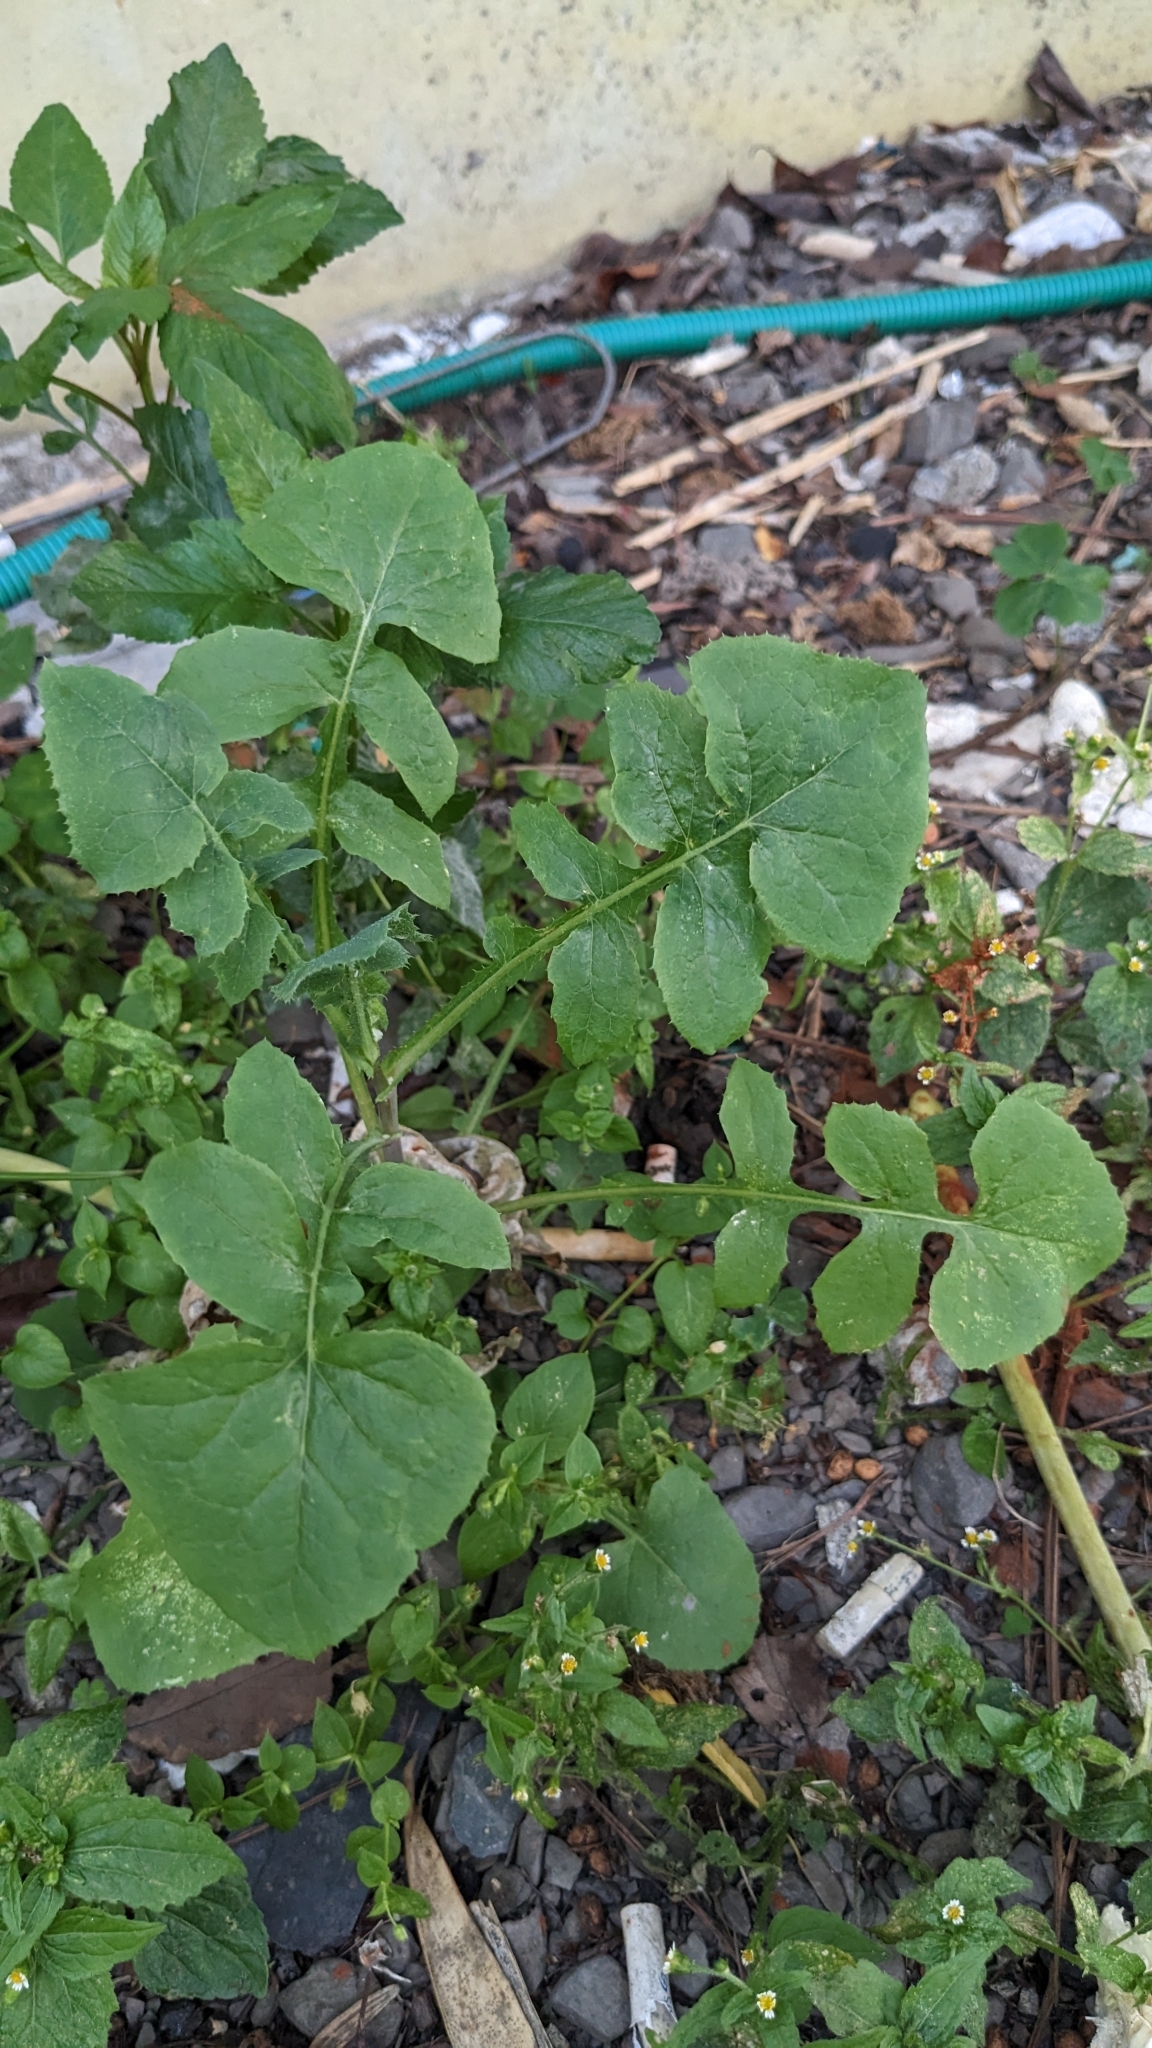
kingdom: Plantae
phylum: Tracheophyta
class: Magnoliopsida
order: Asterales
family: Asteraceae
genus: Sonchus
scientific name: Sonchus oleraceus
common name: Common sowthistle
